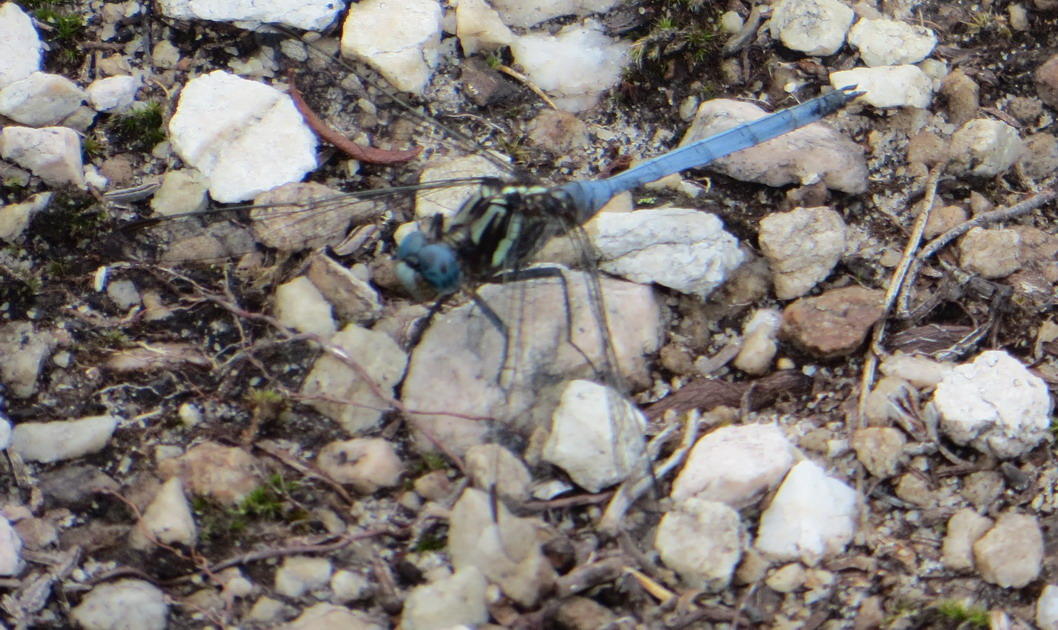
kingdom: Animalia
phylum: Arthropoda
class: Insecta
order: Odonata
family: Libellulidae
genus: Orthetrum
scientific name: Orthetrum julia
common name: Julia skimmer
